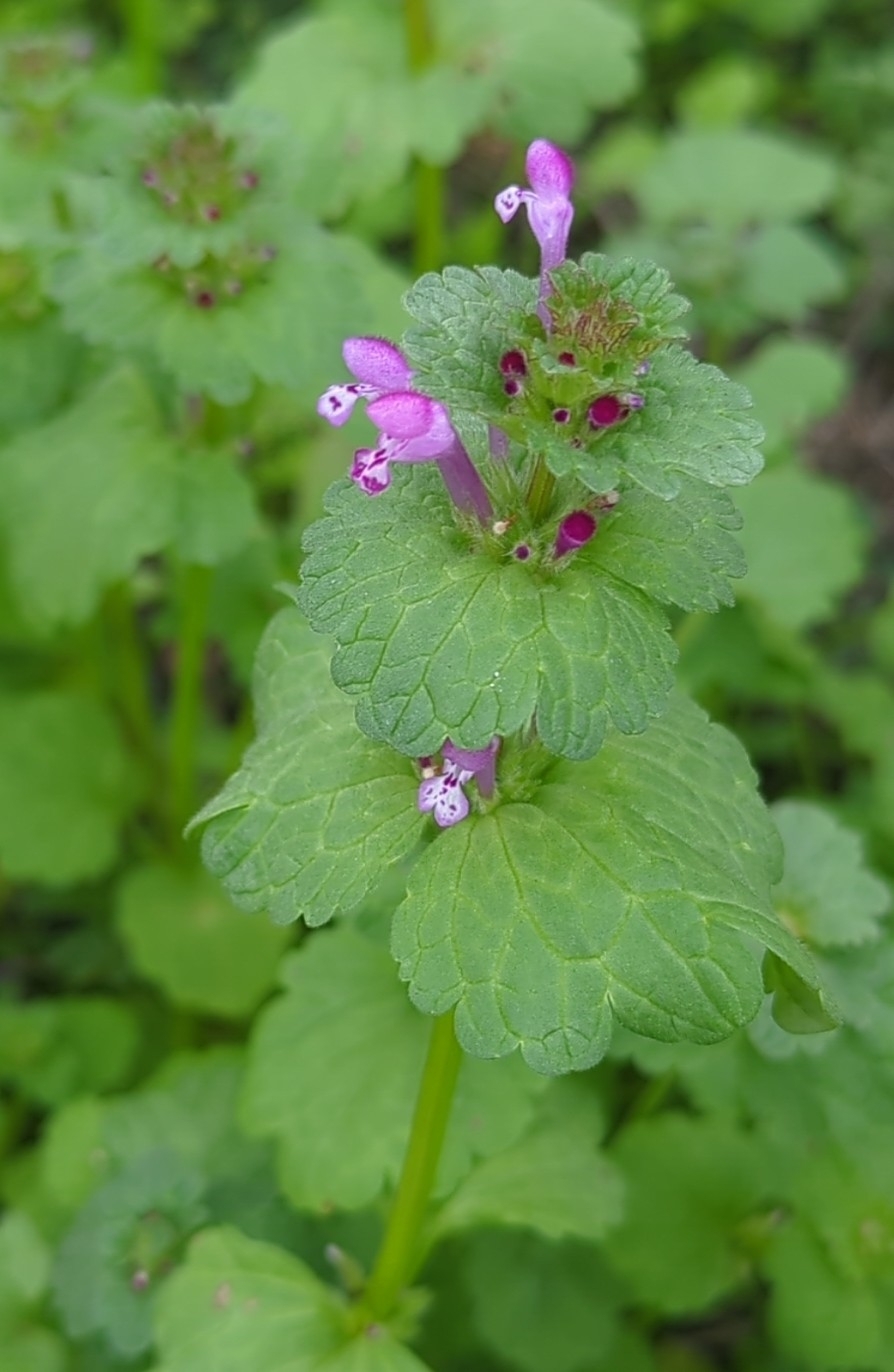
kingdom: Plantae
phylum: Tracheophyta
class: Magnoliopsida
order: Lamiales
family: Lamiaceae
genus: Lamium
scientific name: Lamium amplexicaule
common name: Henbit dead-nettle
